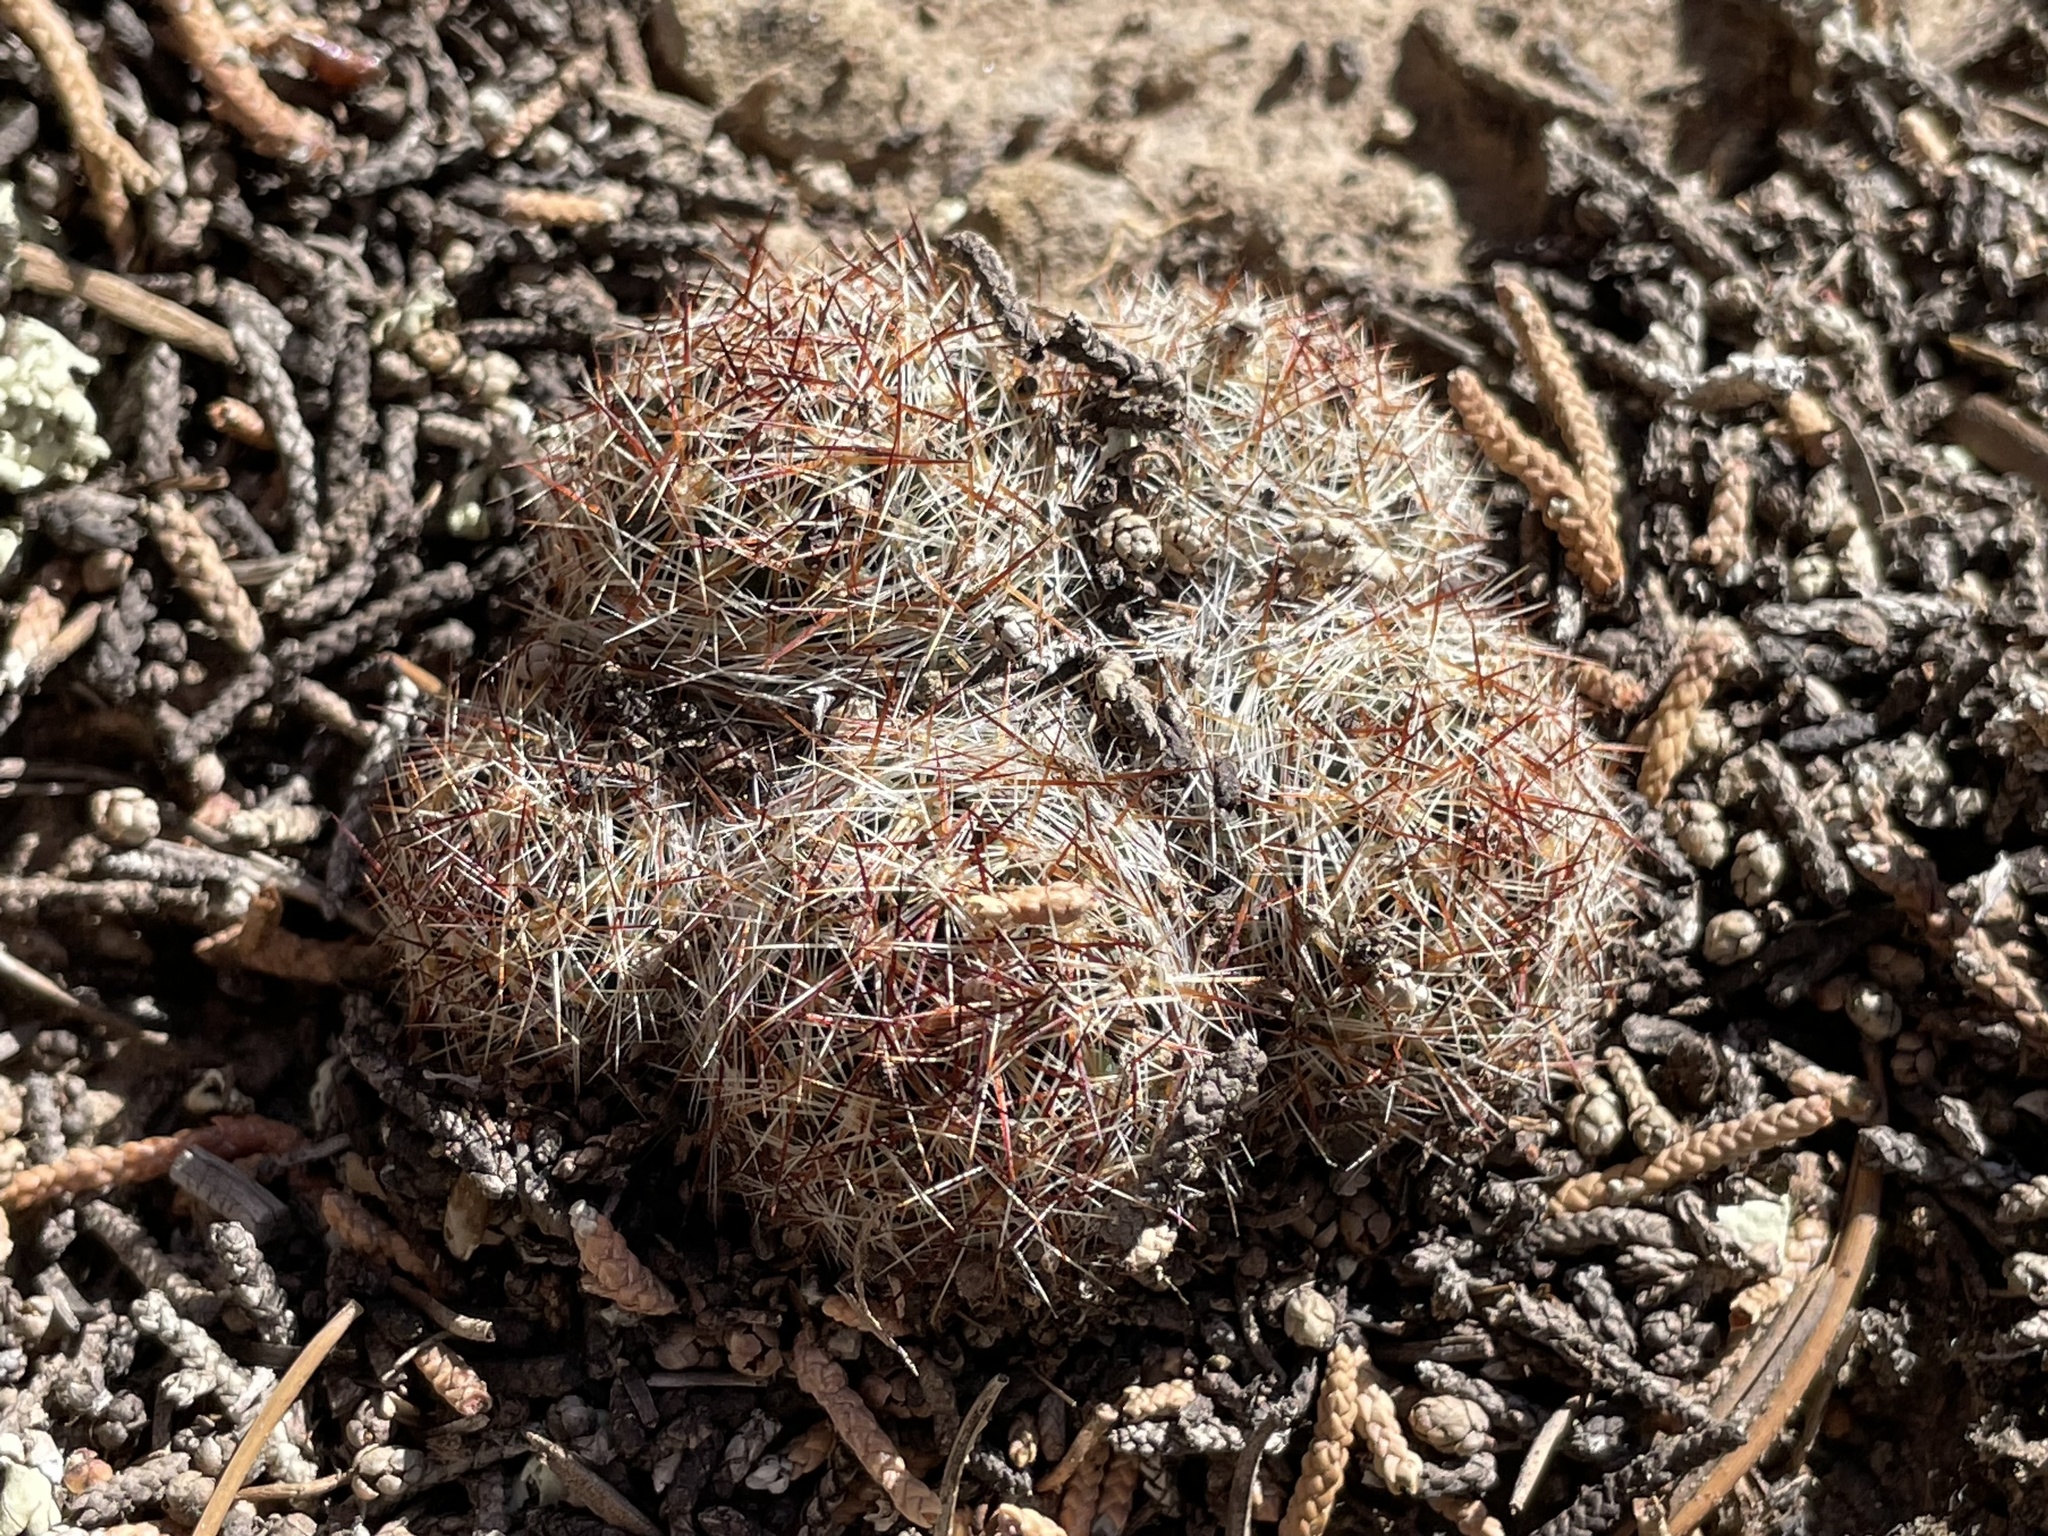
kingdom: Plantae
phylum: Tracheophyta
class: Magnoliopsida
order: Caryophyllales
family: Cactaceae
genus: Pelecyphora
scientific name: Pelecyphora vivipara
